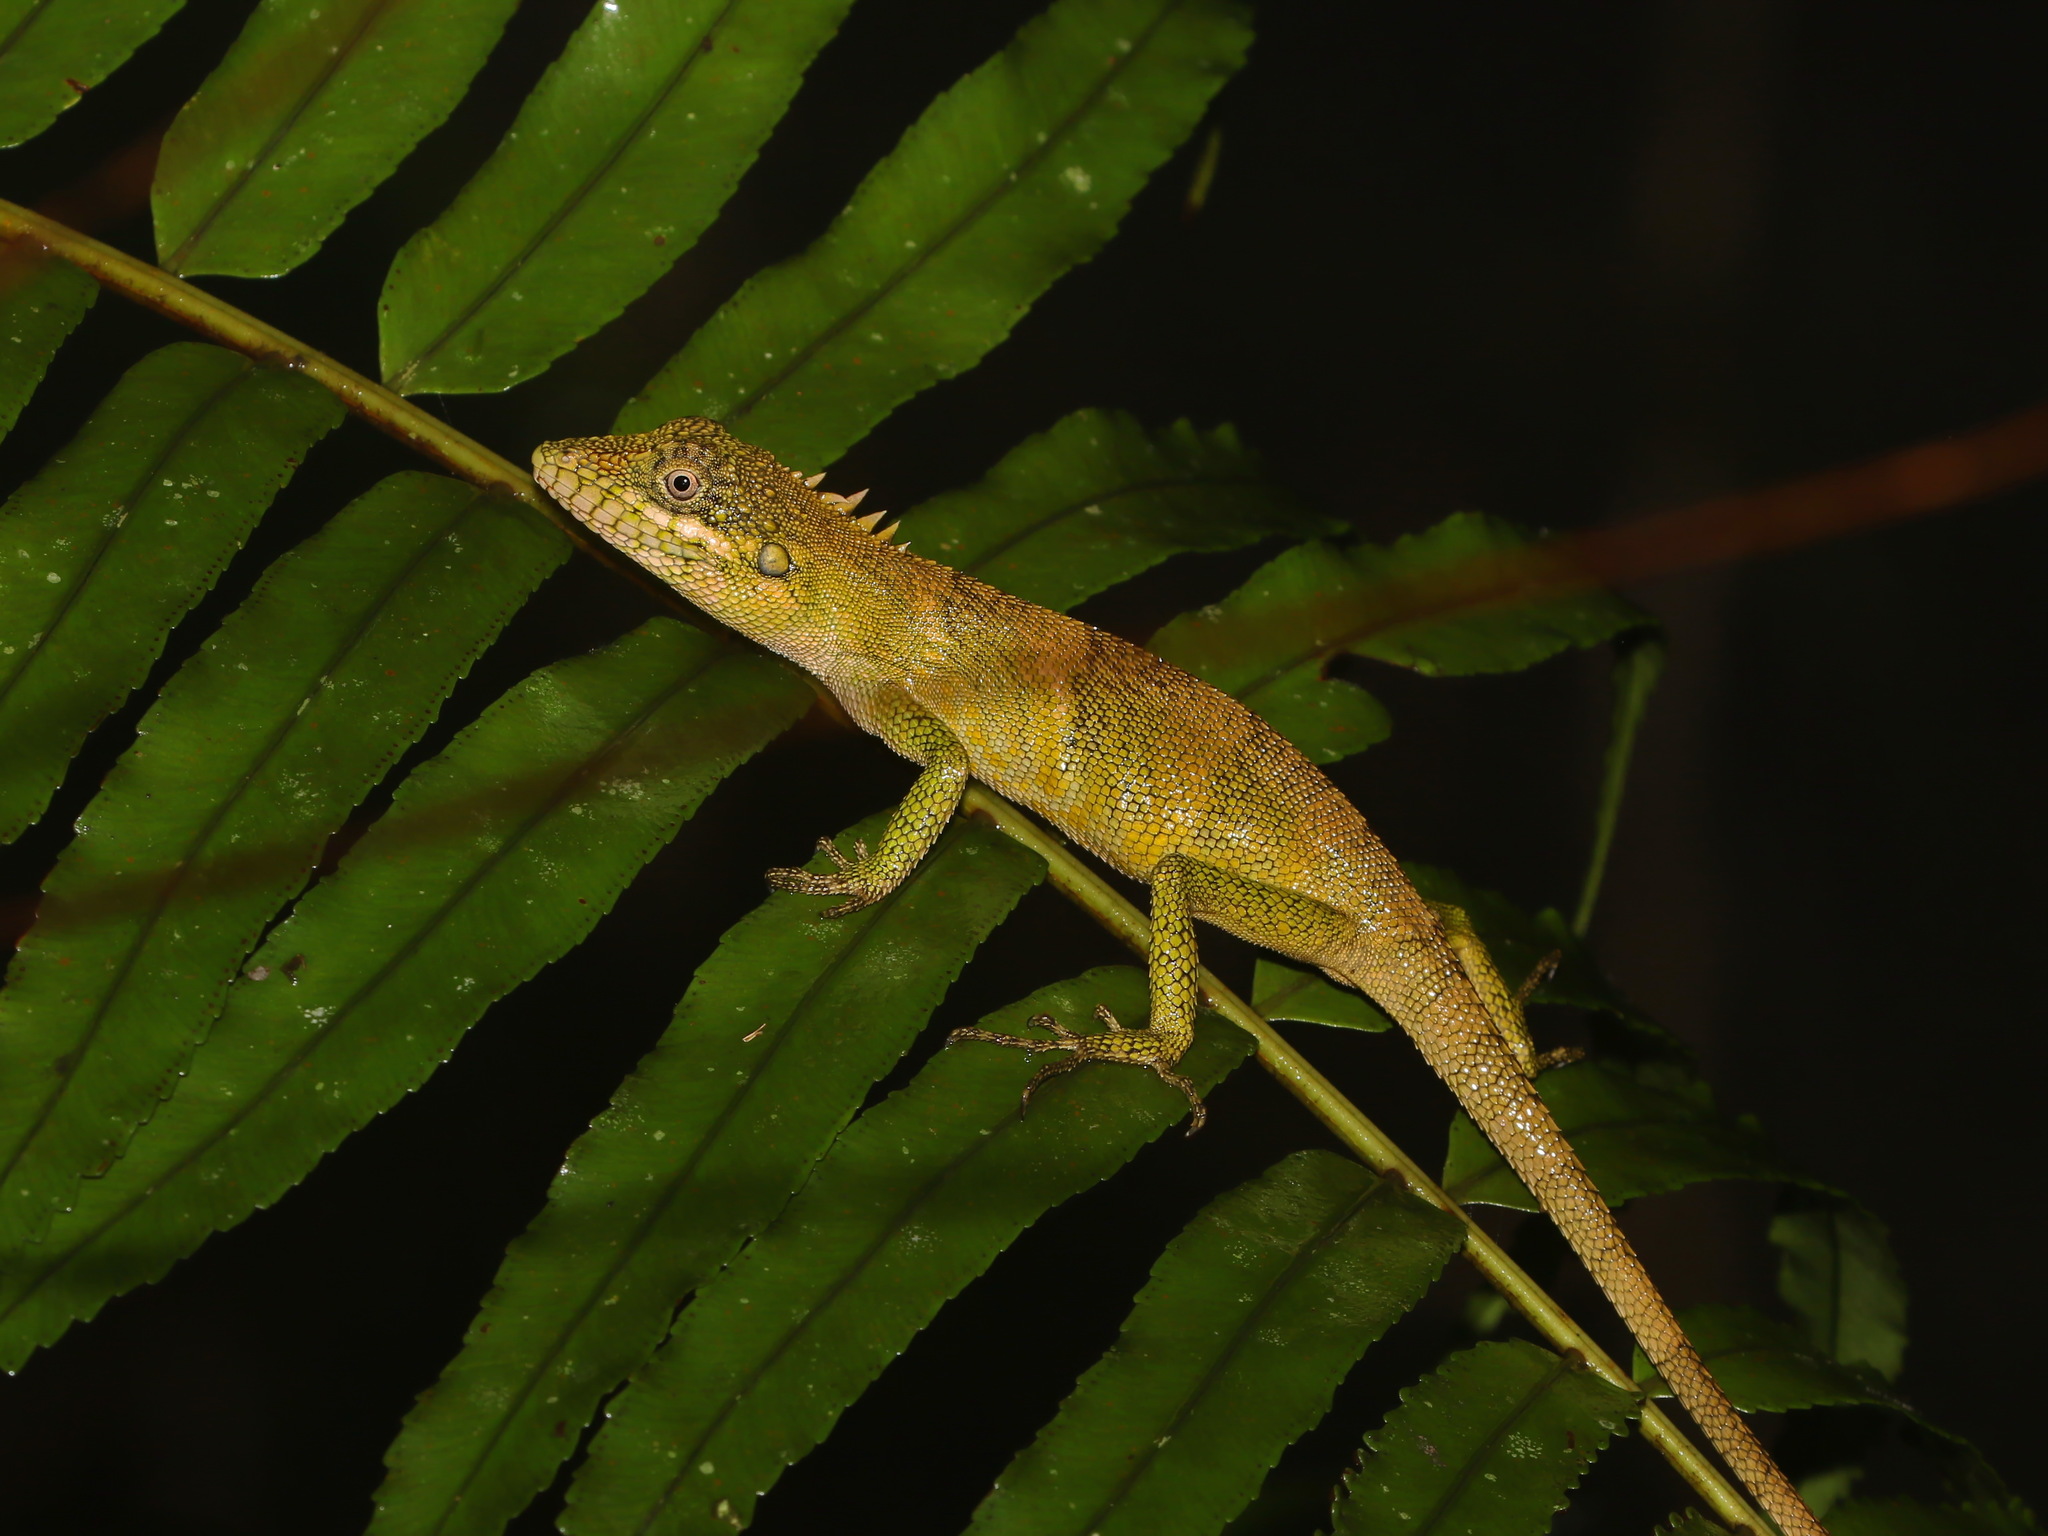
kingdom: Animalia
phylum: Chordata
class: Squamata
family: Agamidae
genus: Pseudocalotes
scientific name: Pseudocalotes khaonanensis
